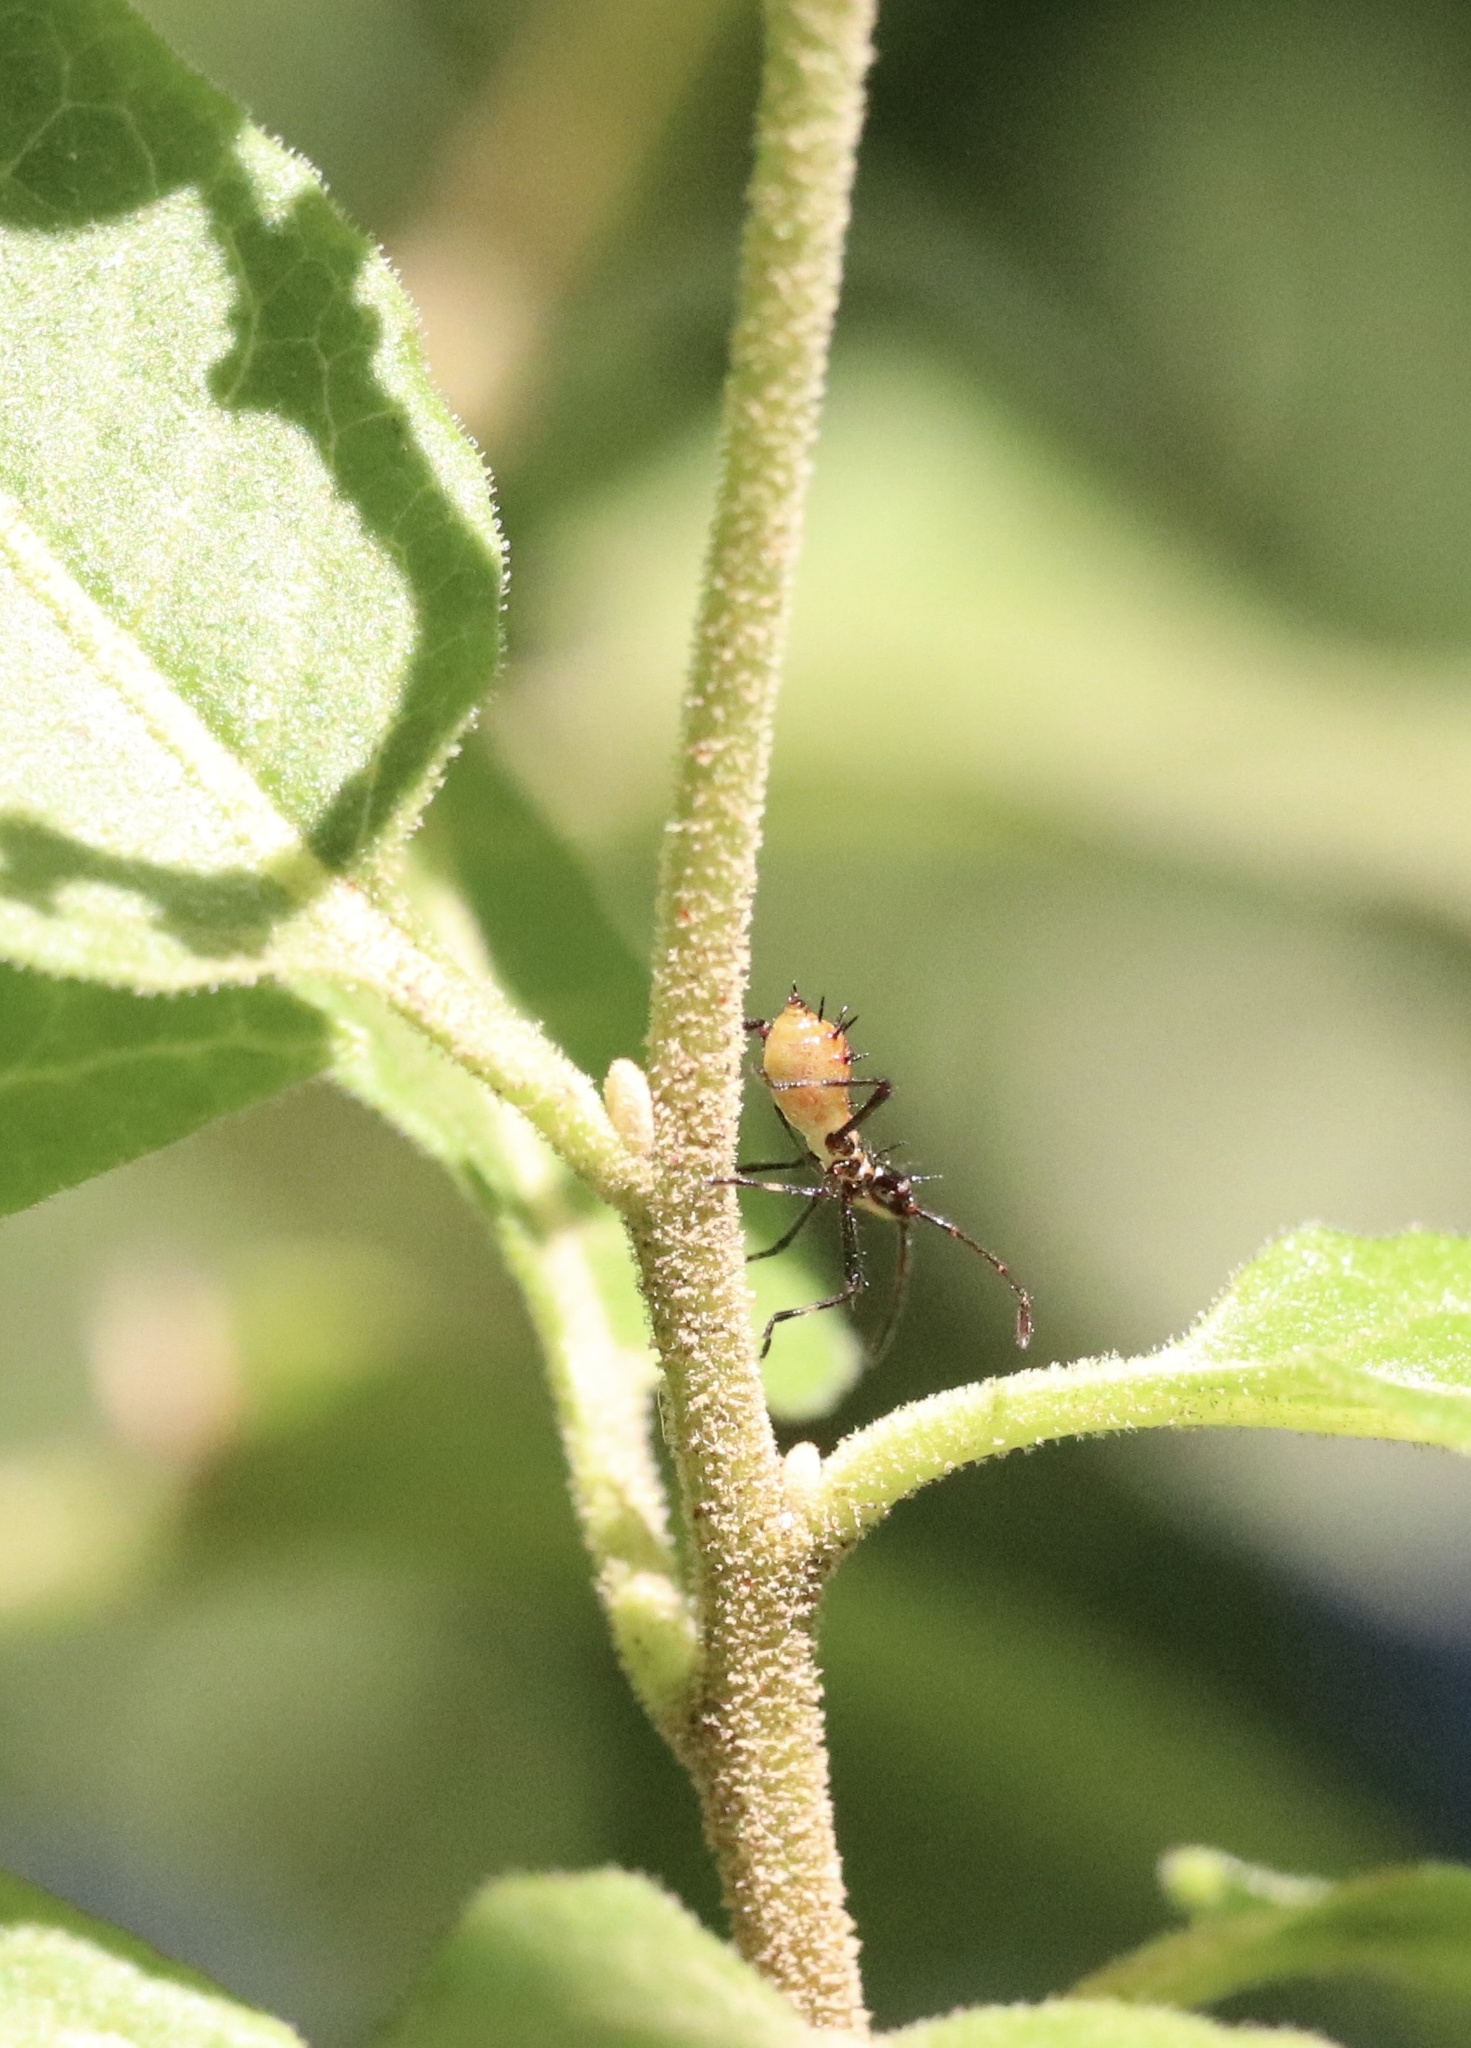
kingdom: Animalia
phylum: Arthropoda
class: Insecta
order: Hemiptera
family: Coreidae
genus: Leptoglossus
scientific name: Leptoglossus chilensis
